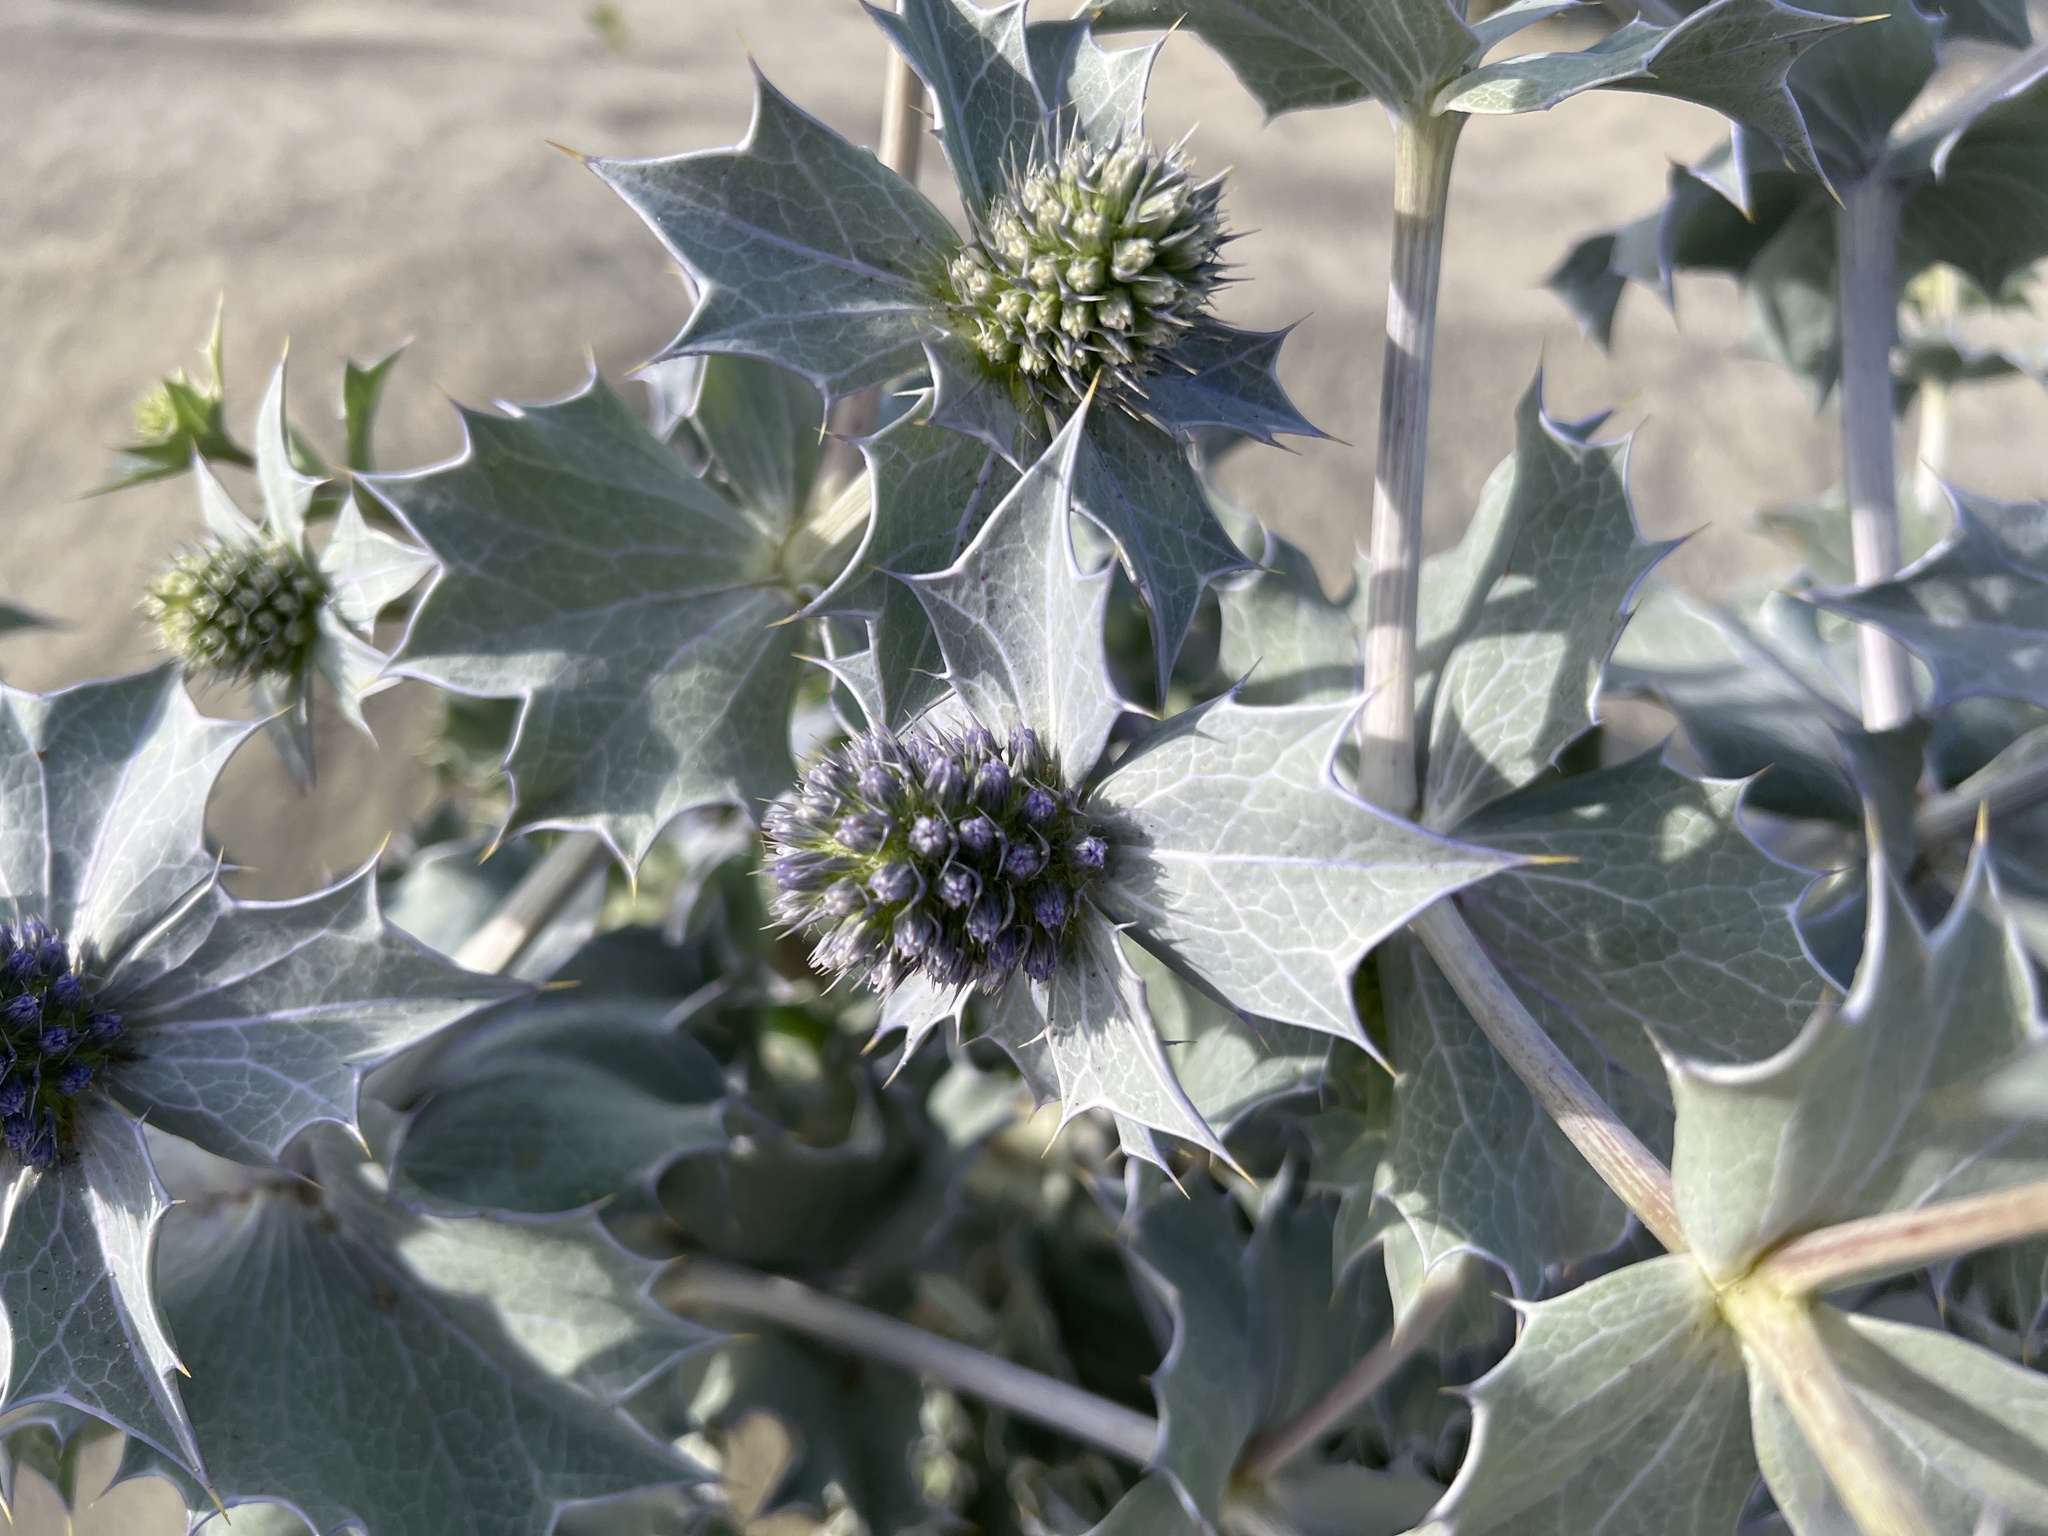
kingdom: Plantae
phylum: Tracheophyta
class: Magnoliopsida
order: Apiales
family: Apiaceae
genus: Eryngium
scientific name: Eryngium maritimum
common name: Sea-holly
